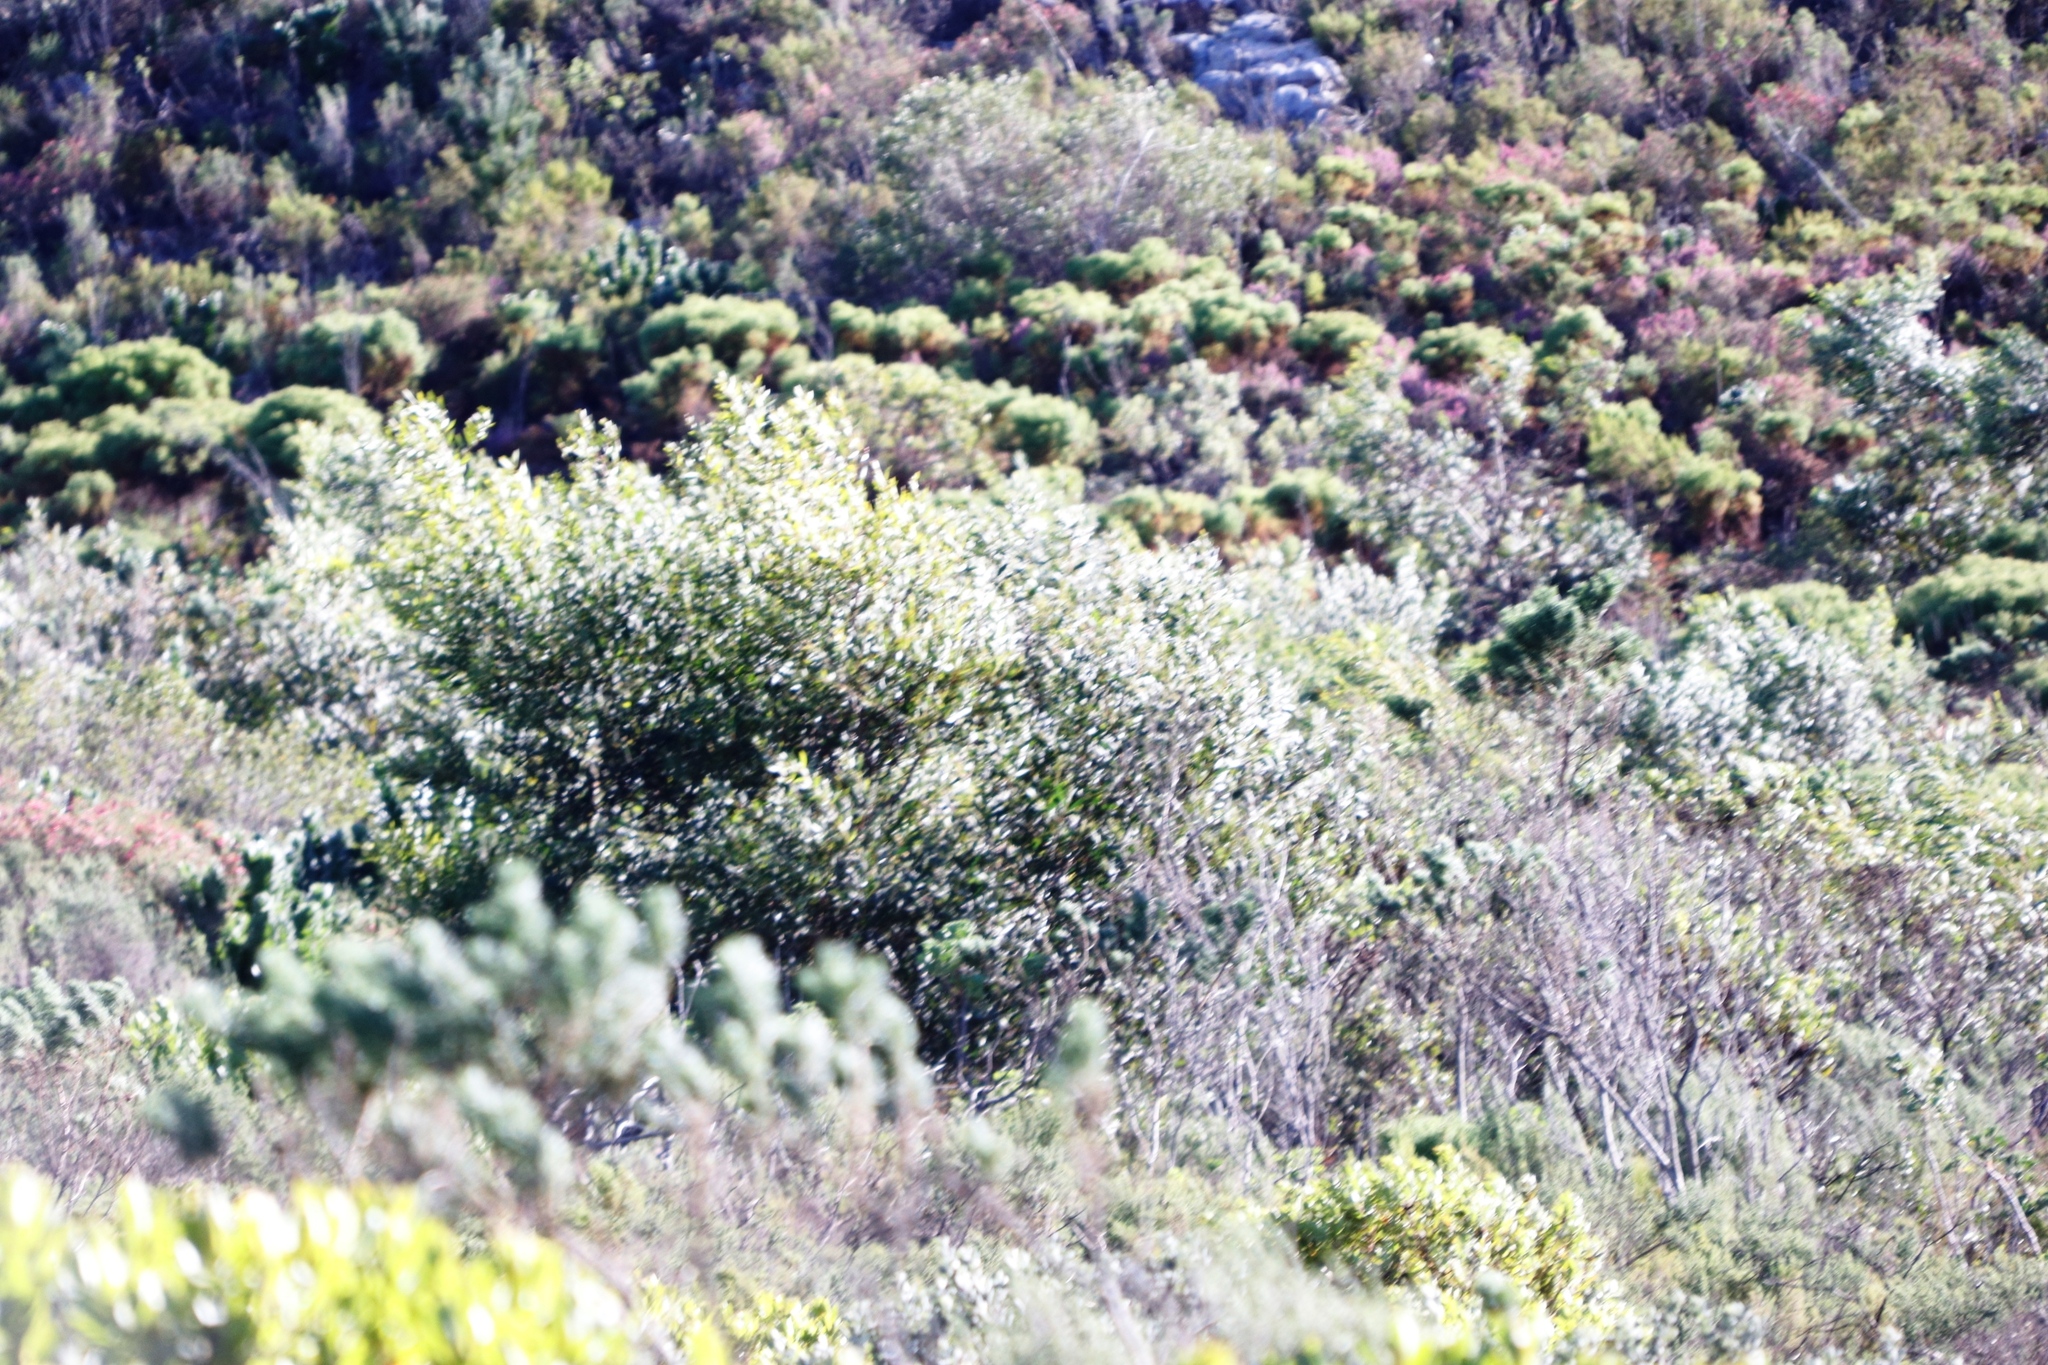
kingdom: Plantae
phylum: Tracheophyta
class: Magnoliopsida
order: Fabales
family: Fabaceae
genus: Acacia
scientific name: Acacia longifolia
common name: Sydney golden wattle
